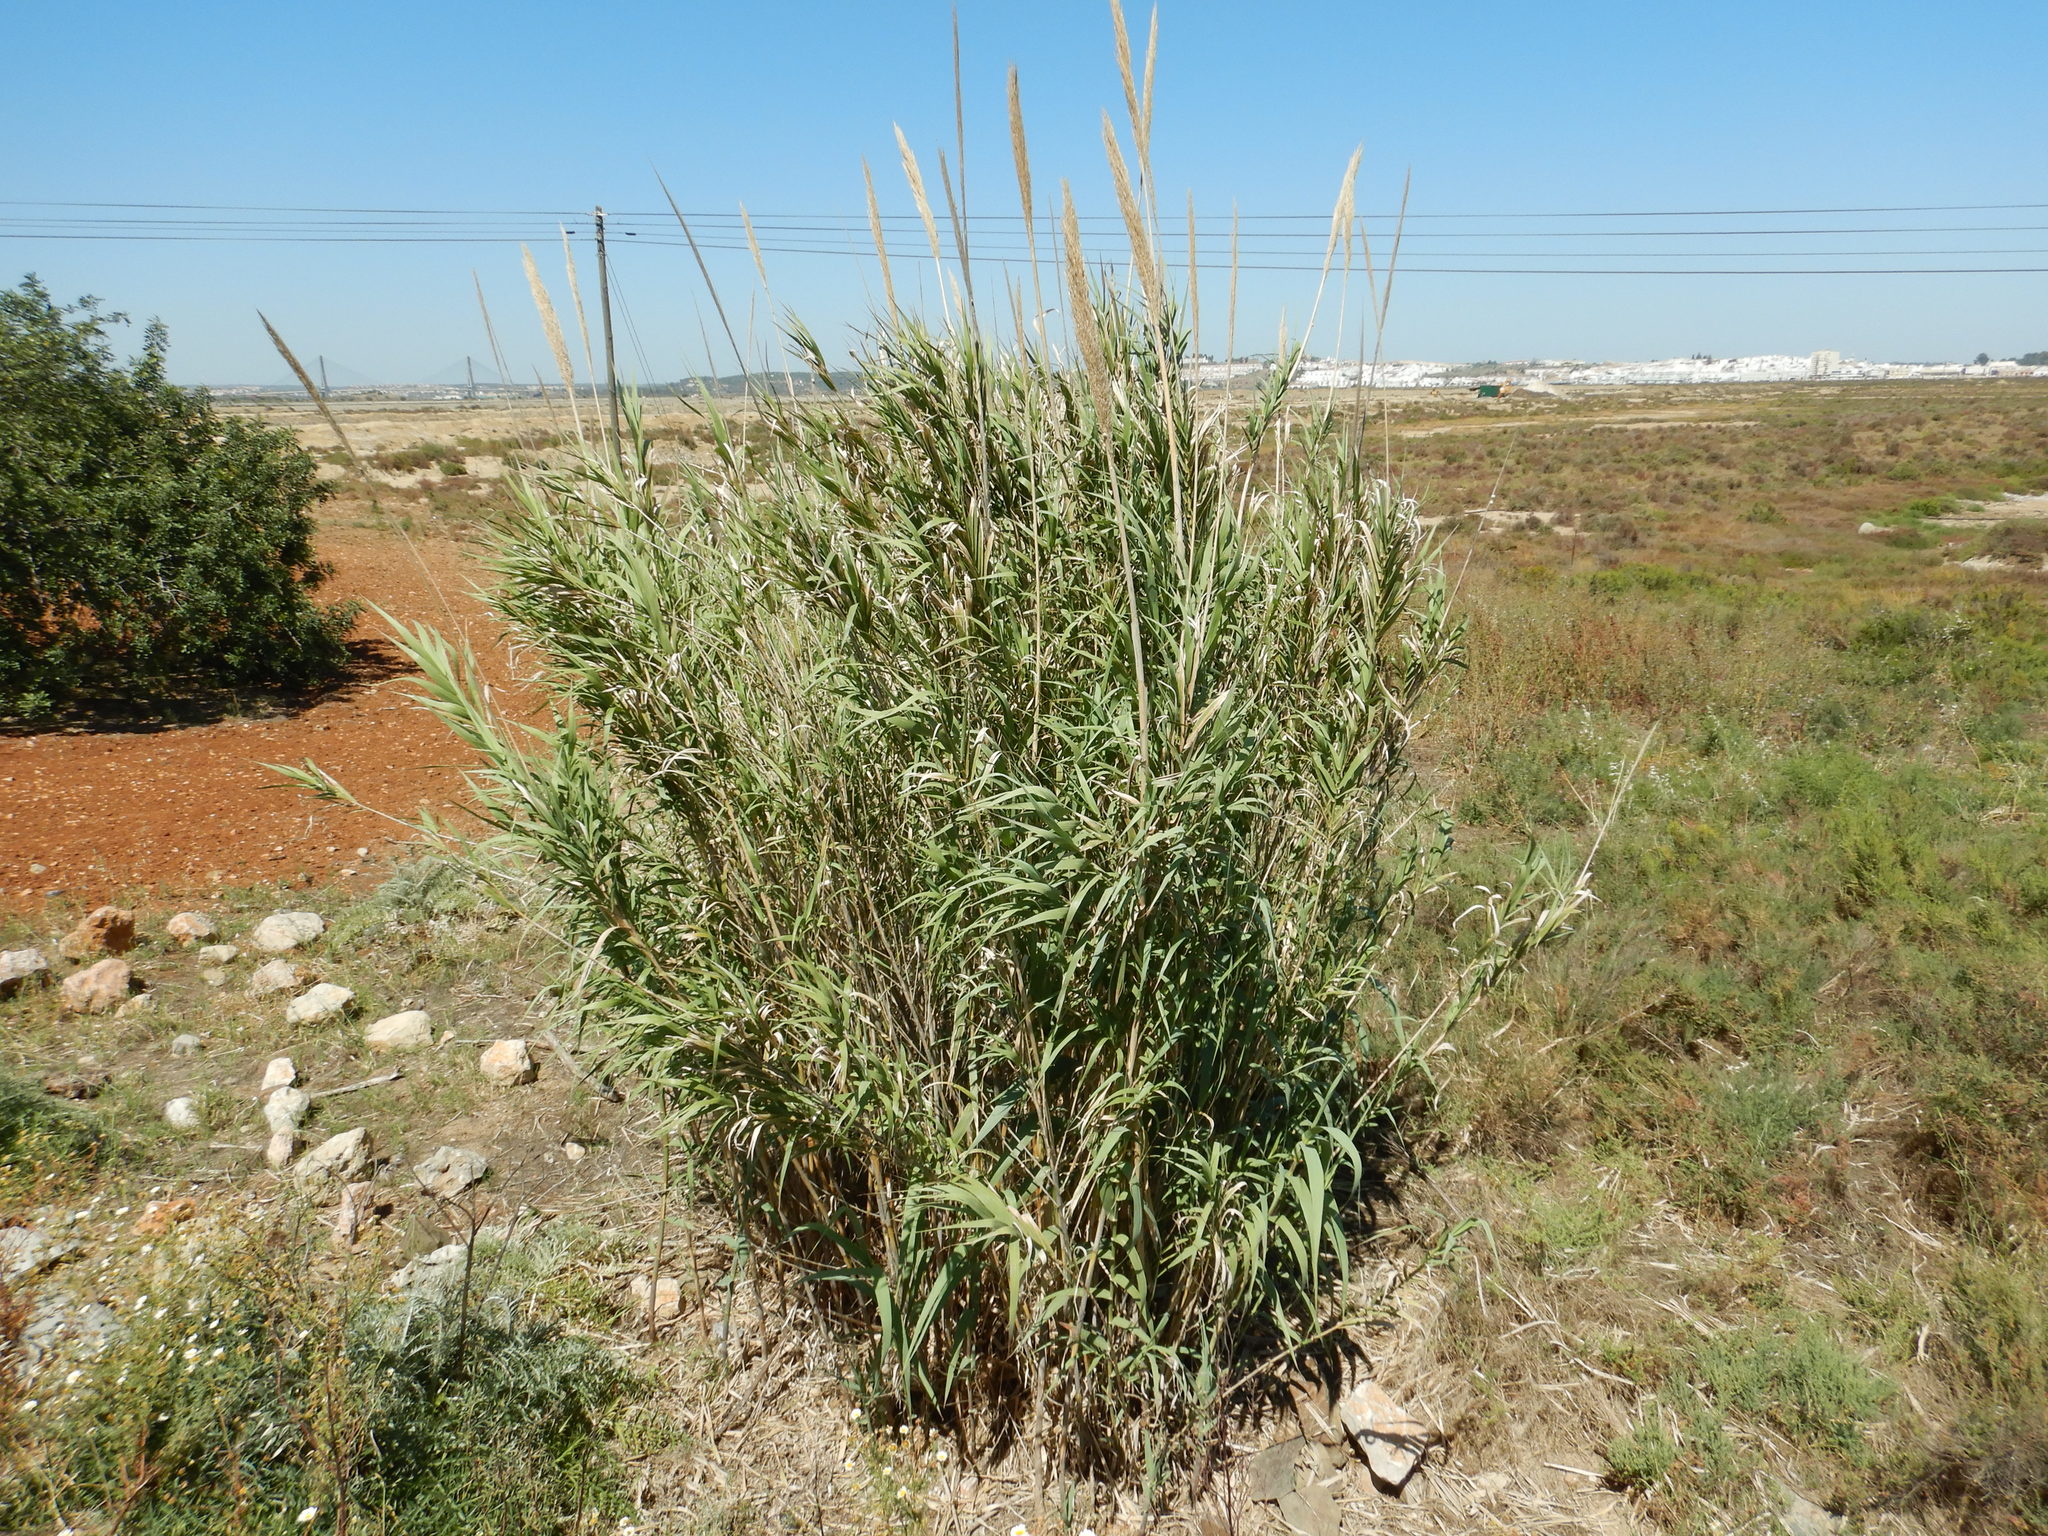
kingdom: Plantae
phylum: Tracheophyta
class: Liliopsida
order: Poales
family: Poaceae
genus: Arundo
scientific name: Arundo donax
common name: Giant reed
